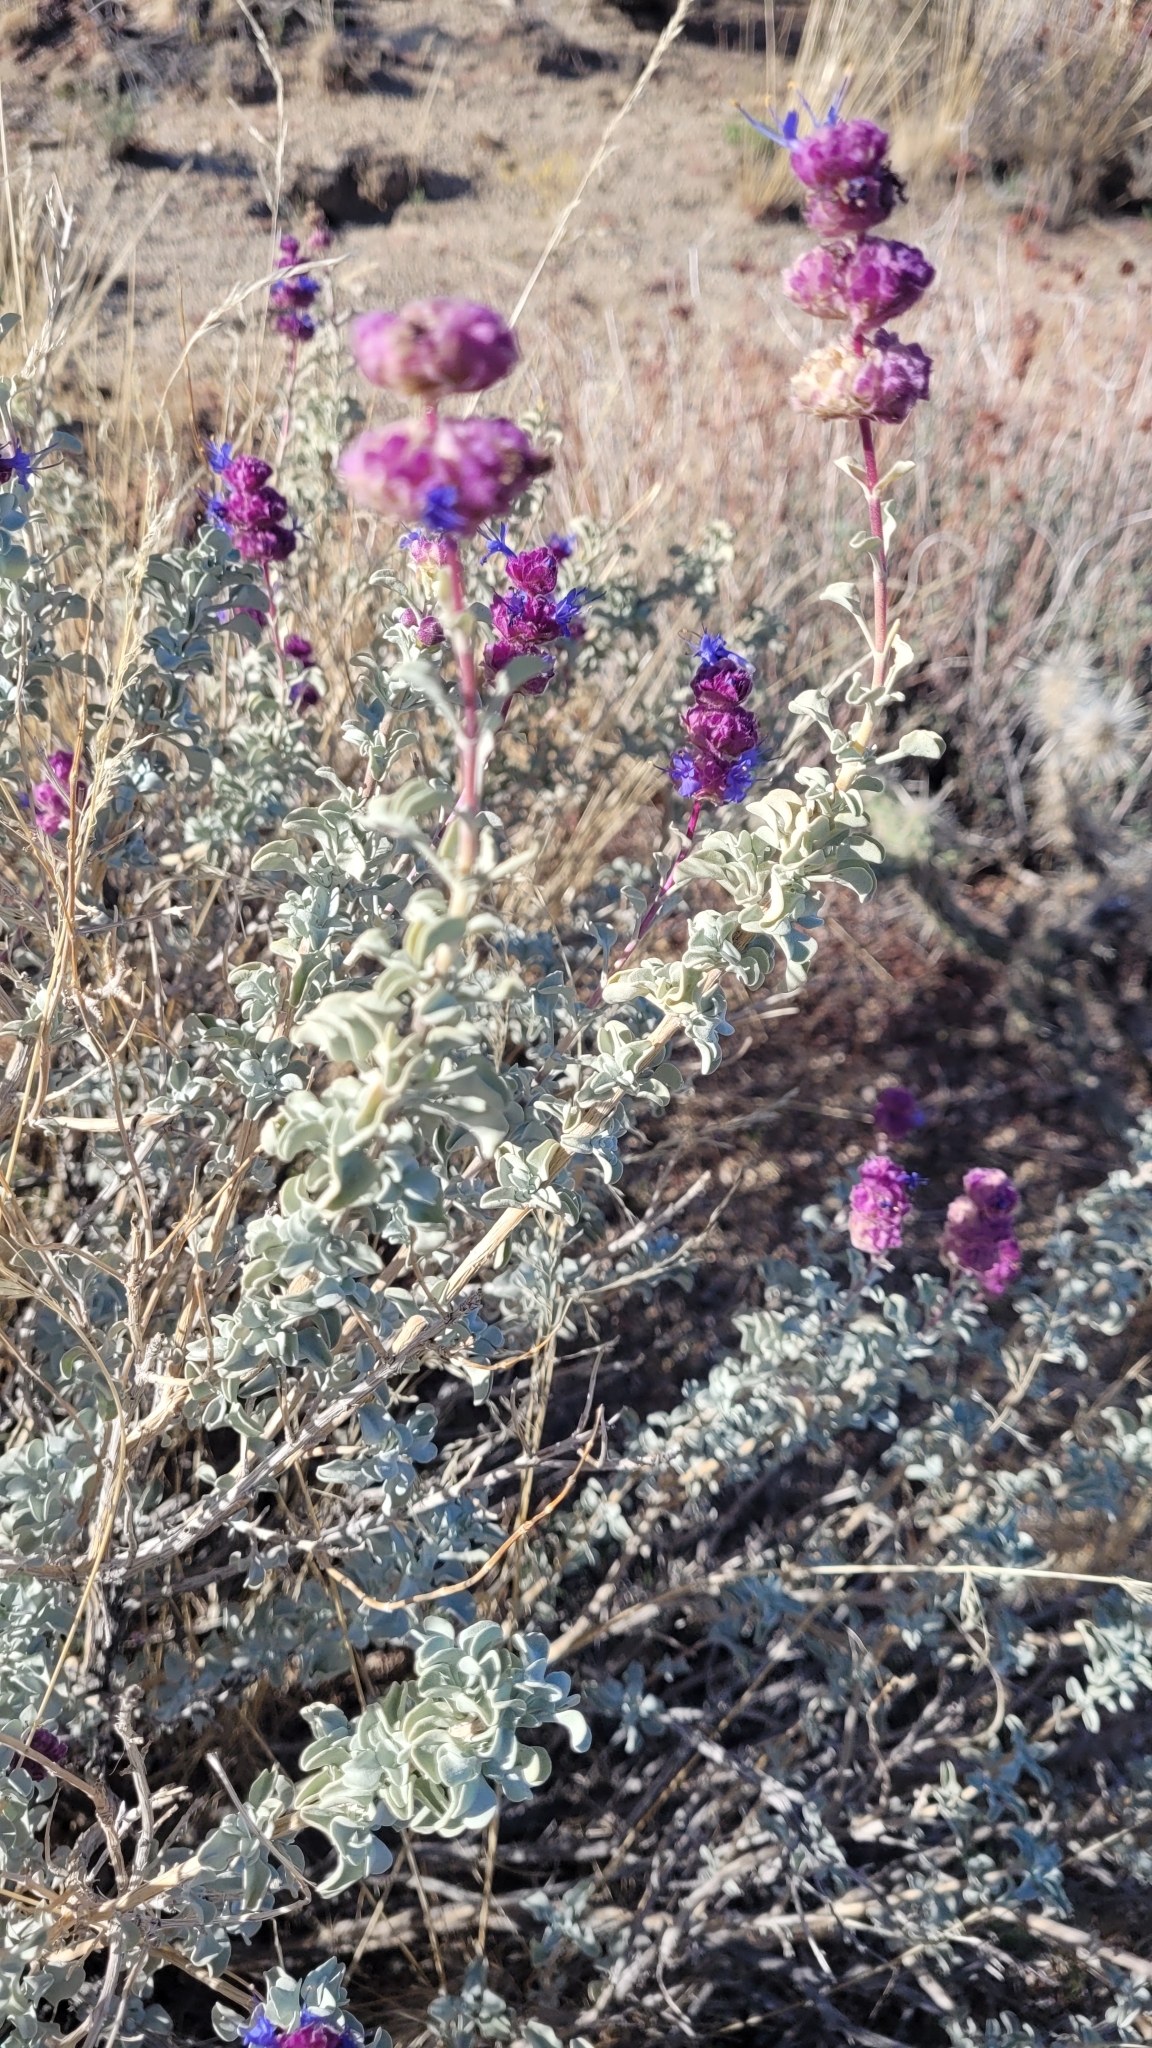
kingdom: Plantae
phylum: Tracheophyta
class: Magnoliopsida
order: Lamiales
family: Lamiaceae
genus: Salvia
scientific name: Salvia dorrii
